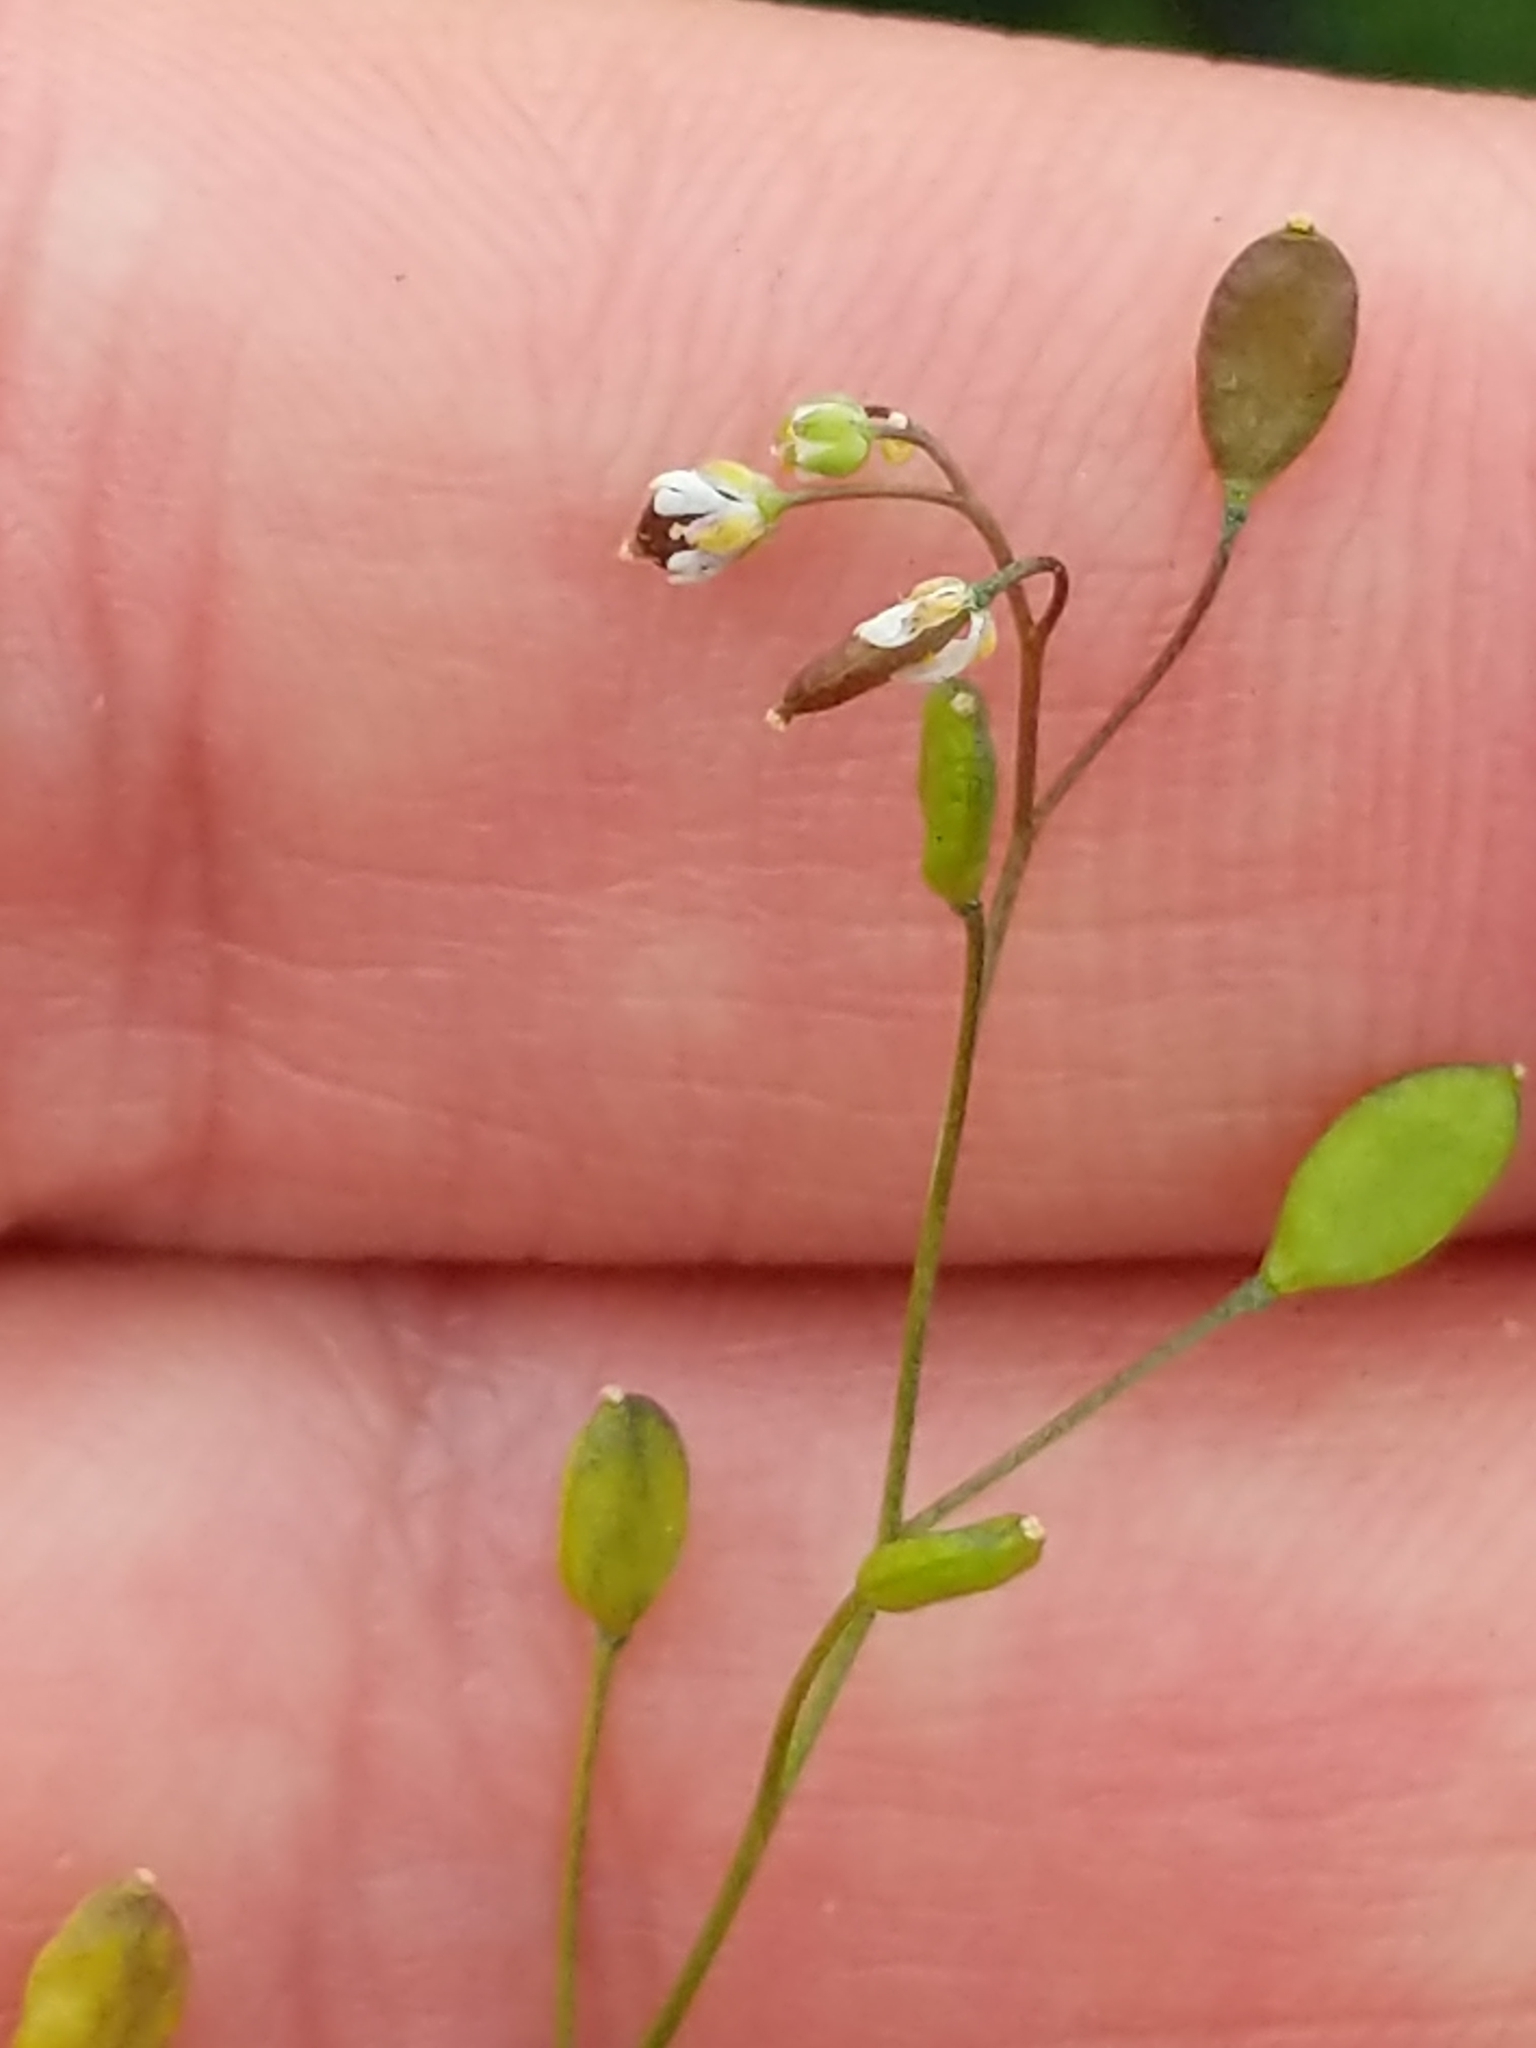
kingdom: Plantae
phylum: Tracheophyta
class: Magnoliopsida
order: Brassicales
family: Brassicaceae
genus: Draba
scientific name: Draba verna
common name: Spring draba
